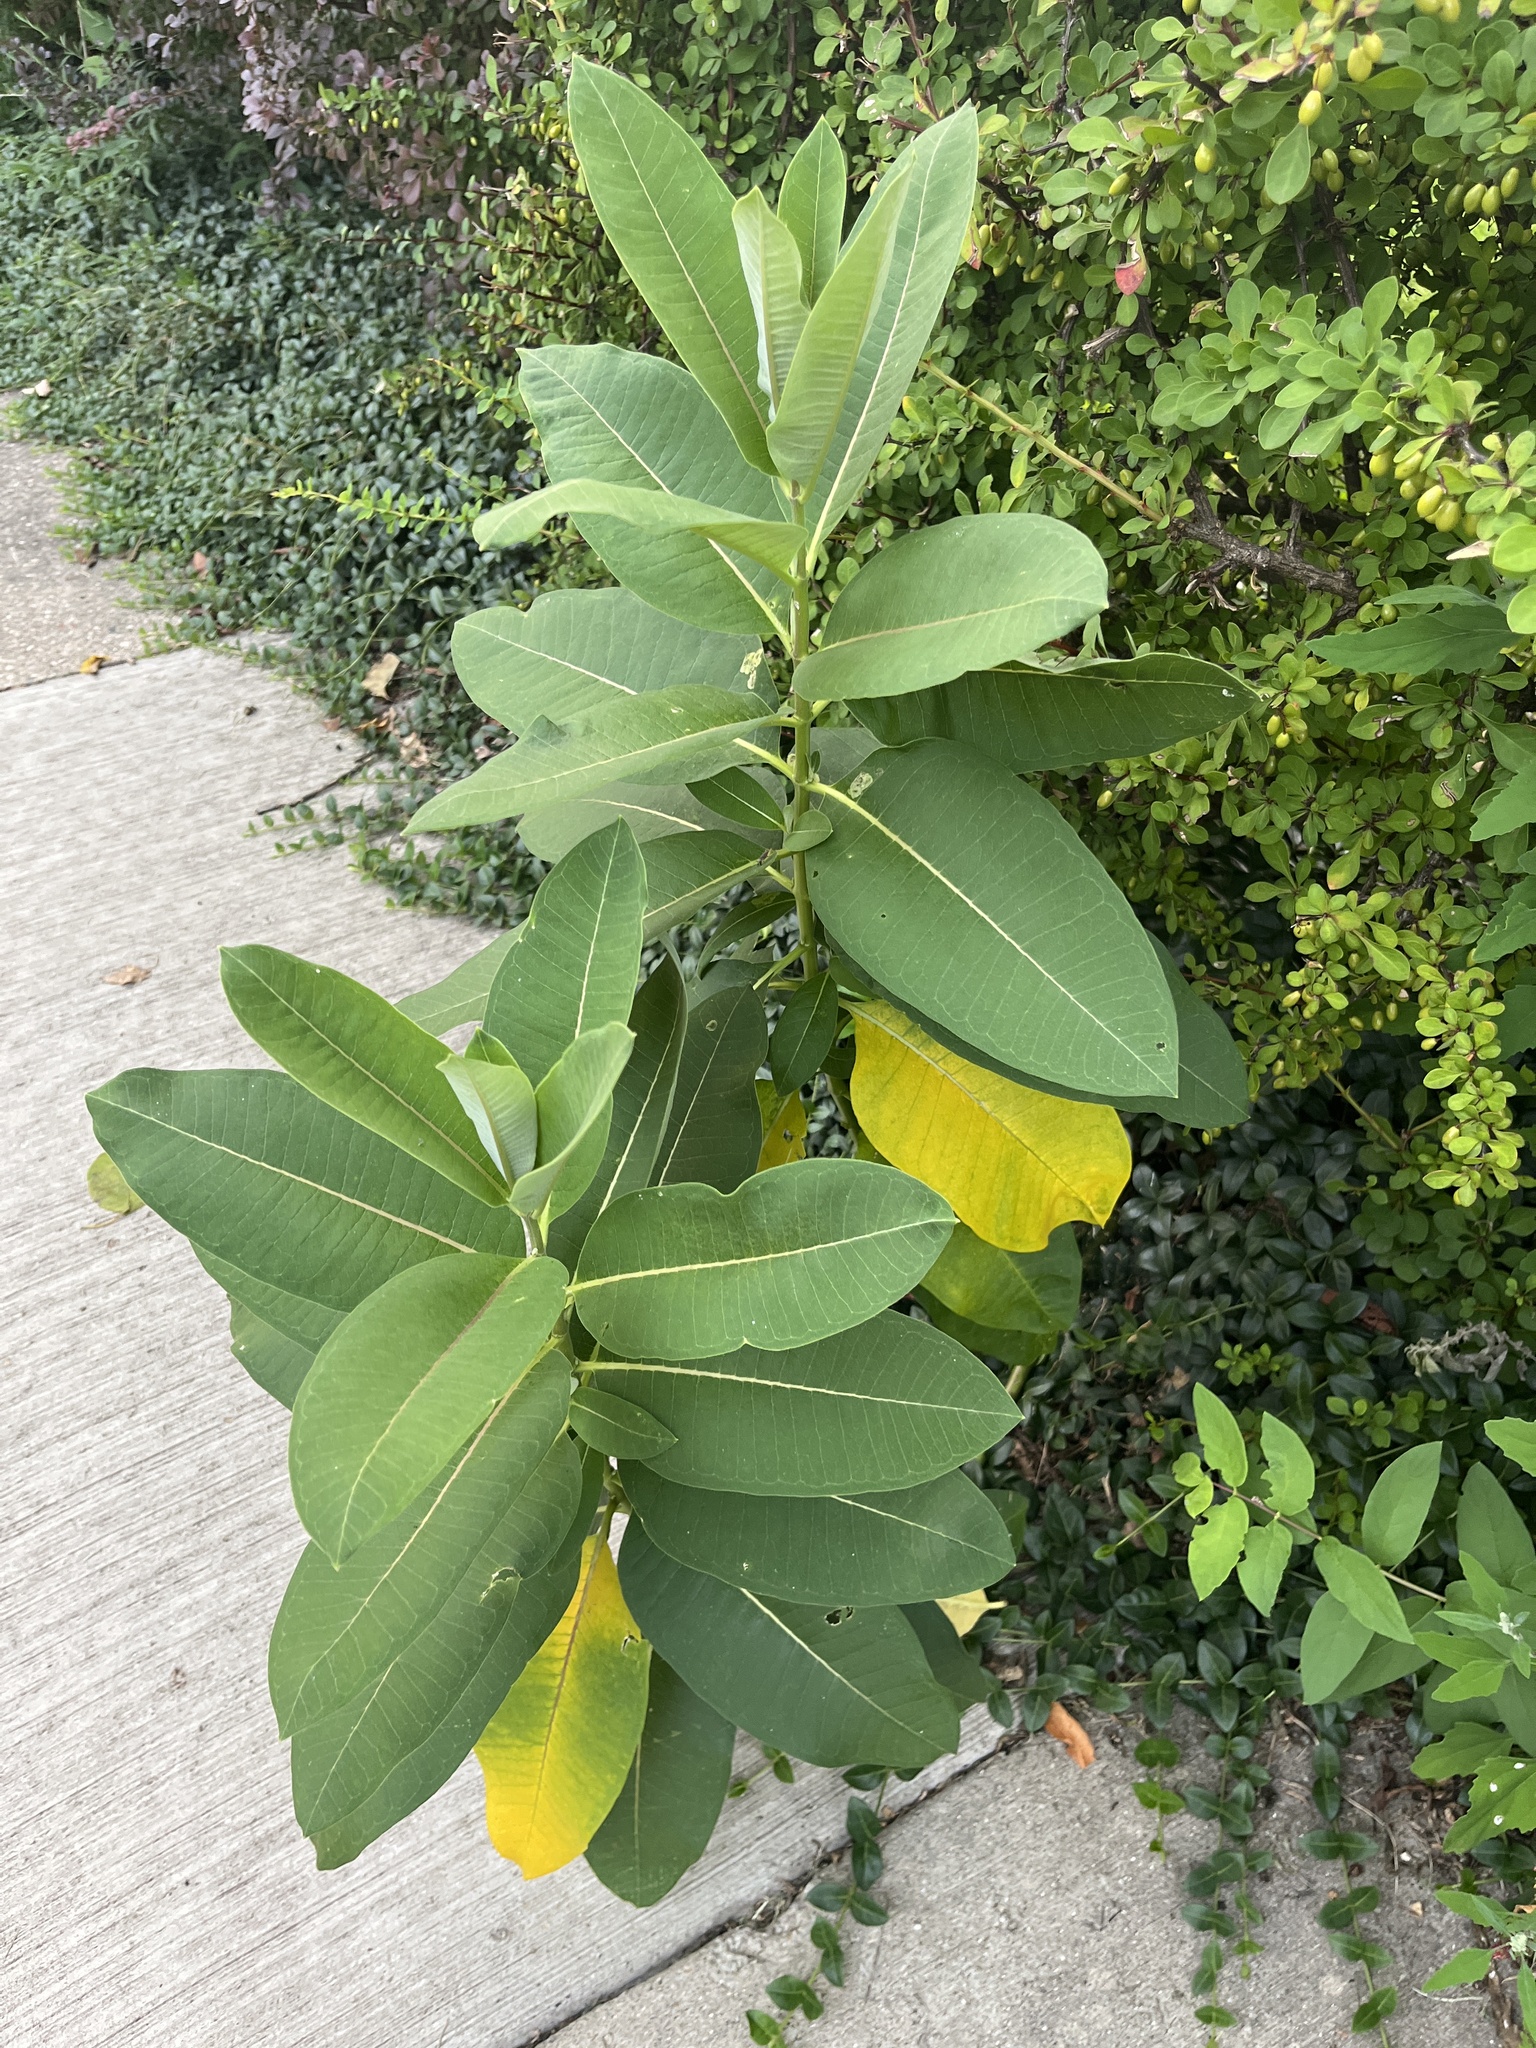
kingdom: Plantae
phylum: Tracheophyta
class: Magnoliopsida
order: Gentianales
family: Apocynaceae
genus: Asclepias
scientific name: Asclepias syriaca
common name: Common milkweed
